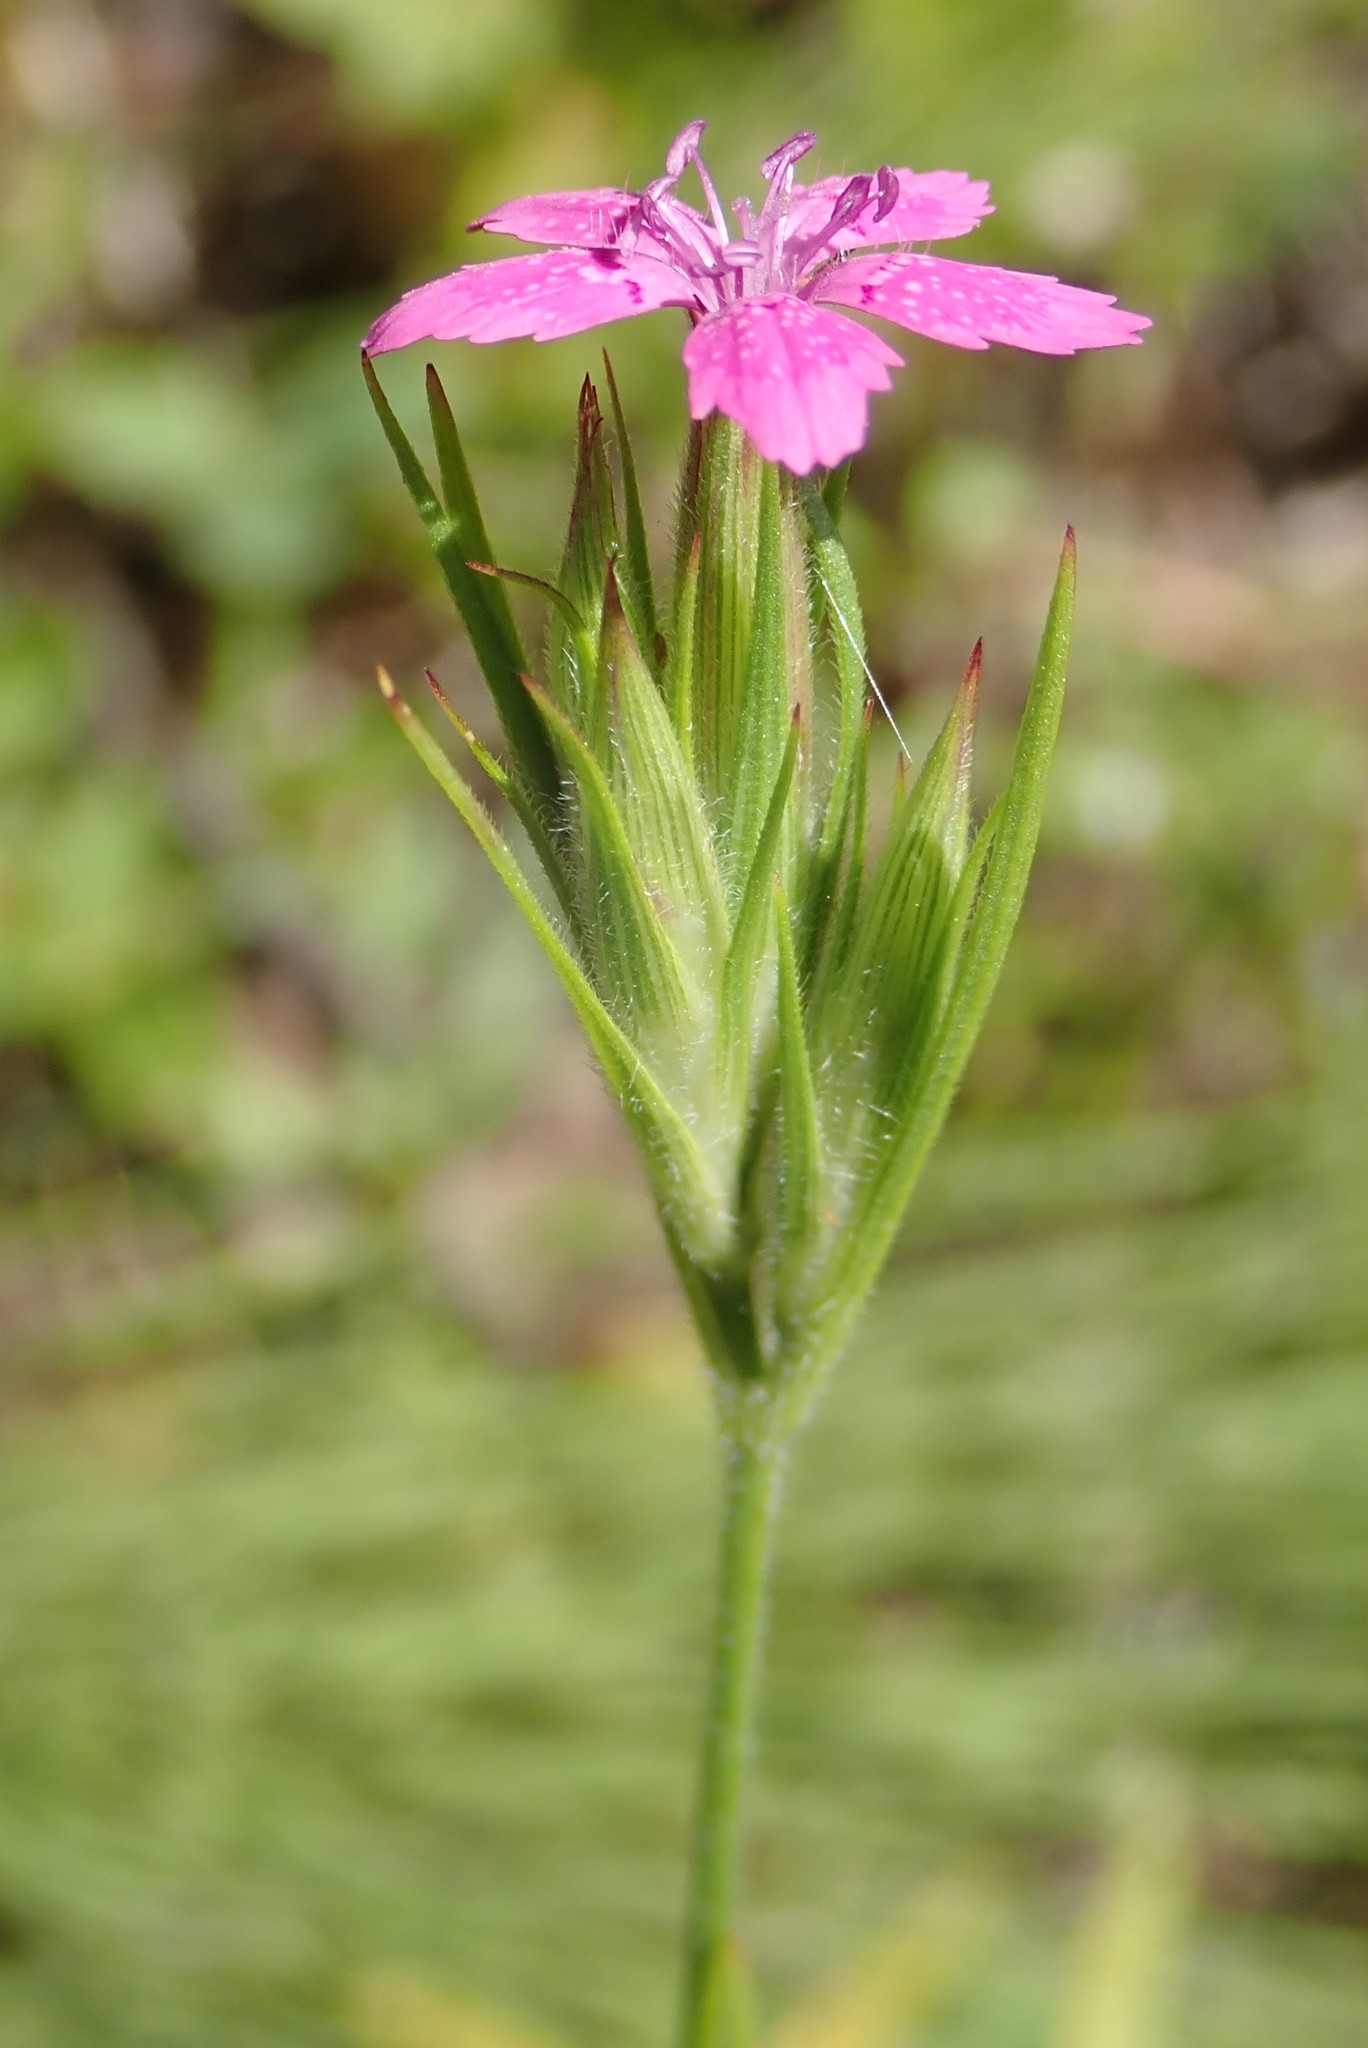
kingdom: Plantae
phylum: Tracheophyta
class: Magnoliopsida
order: Caryophyllales
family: Caryophyllaceae
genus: Dianthus
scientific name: Dianthus armeria
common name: Deptford pink
